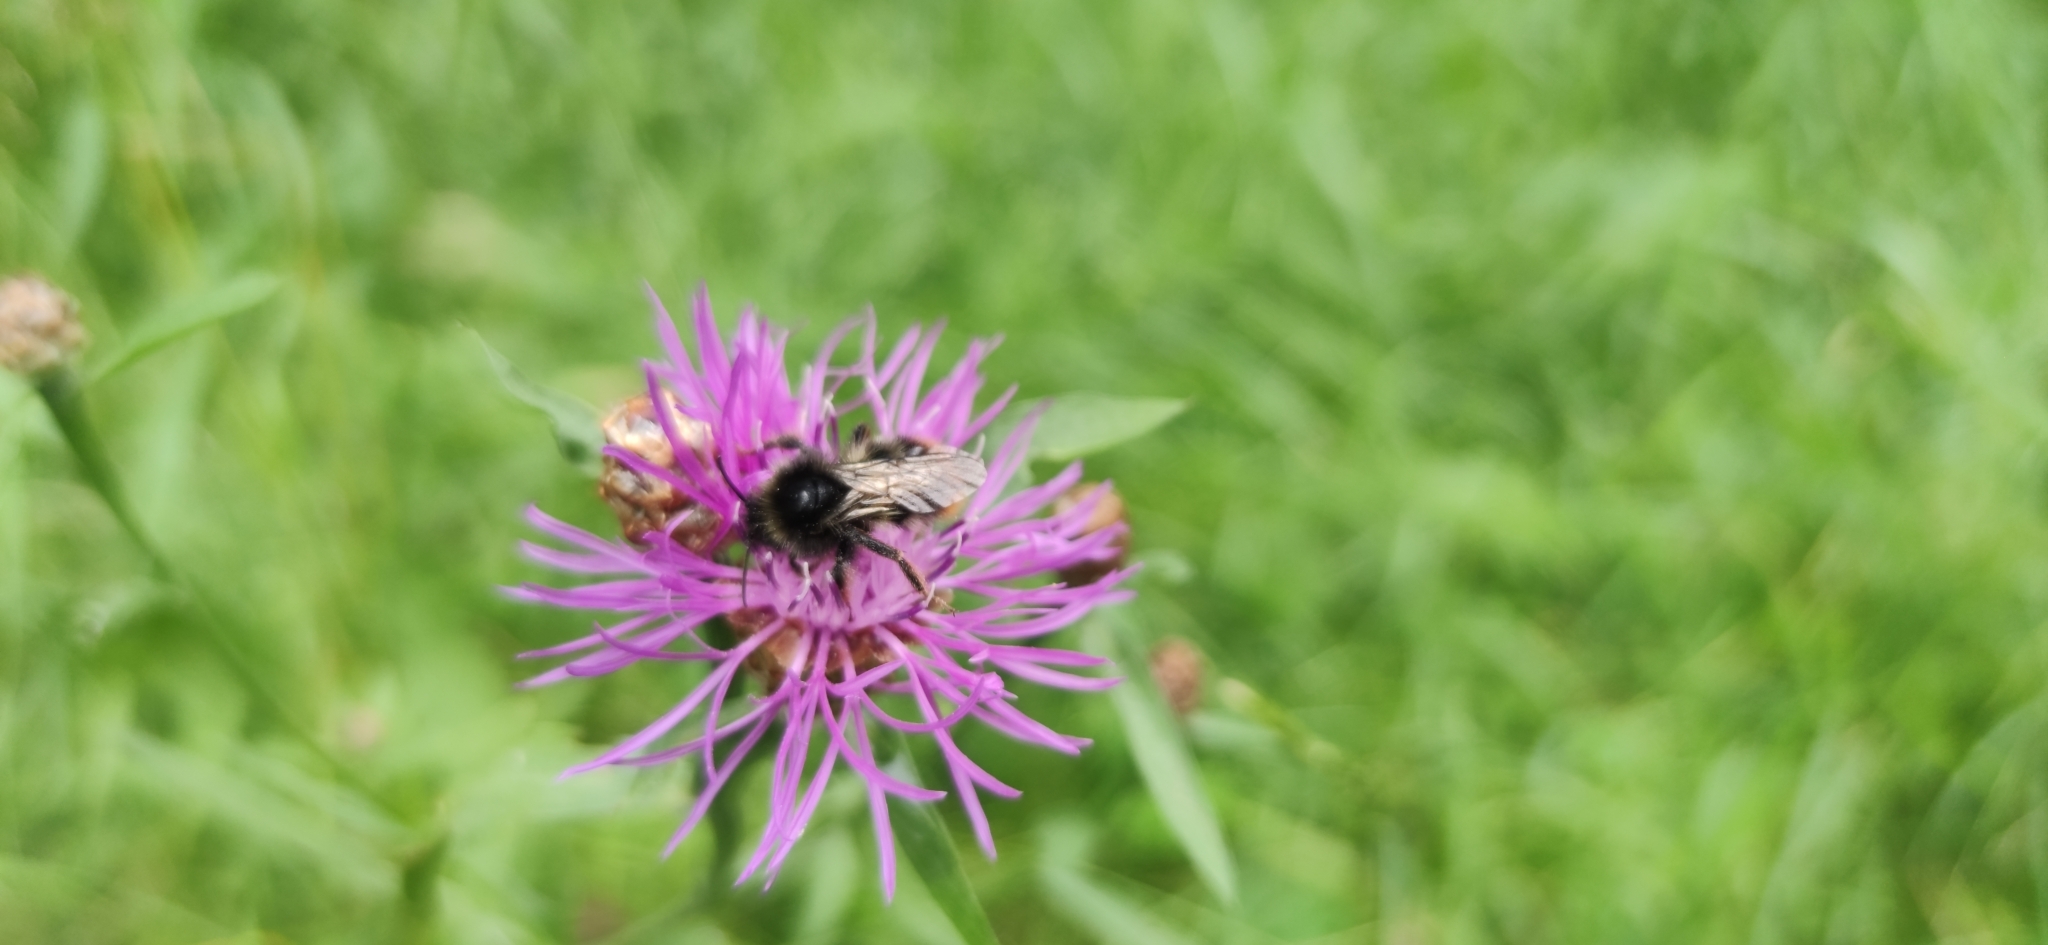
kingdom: Animalia
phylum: Arthropoda
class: Insecta
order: Hymenoptera
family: Apidae
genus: Bombus
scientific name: Bombus rupestris
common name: Hill cuckoo-bee
